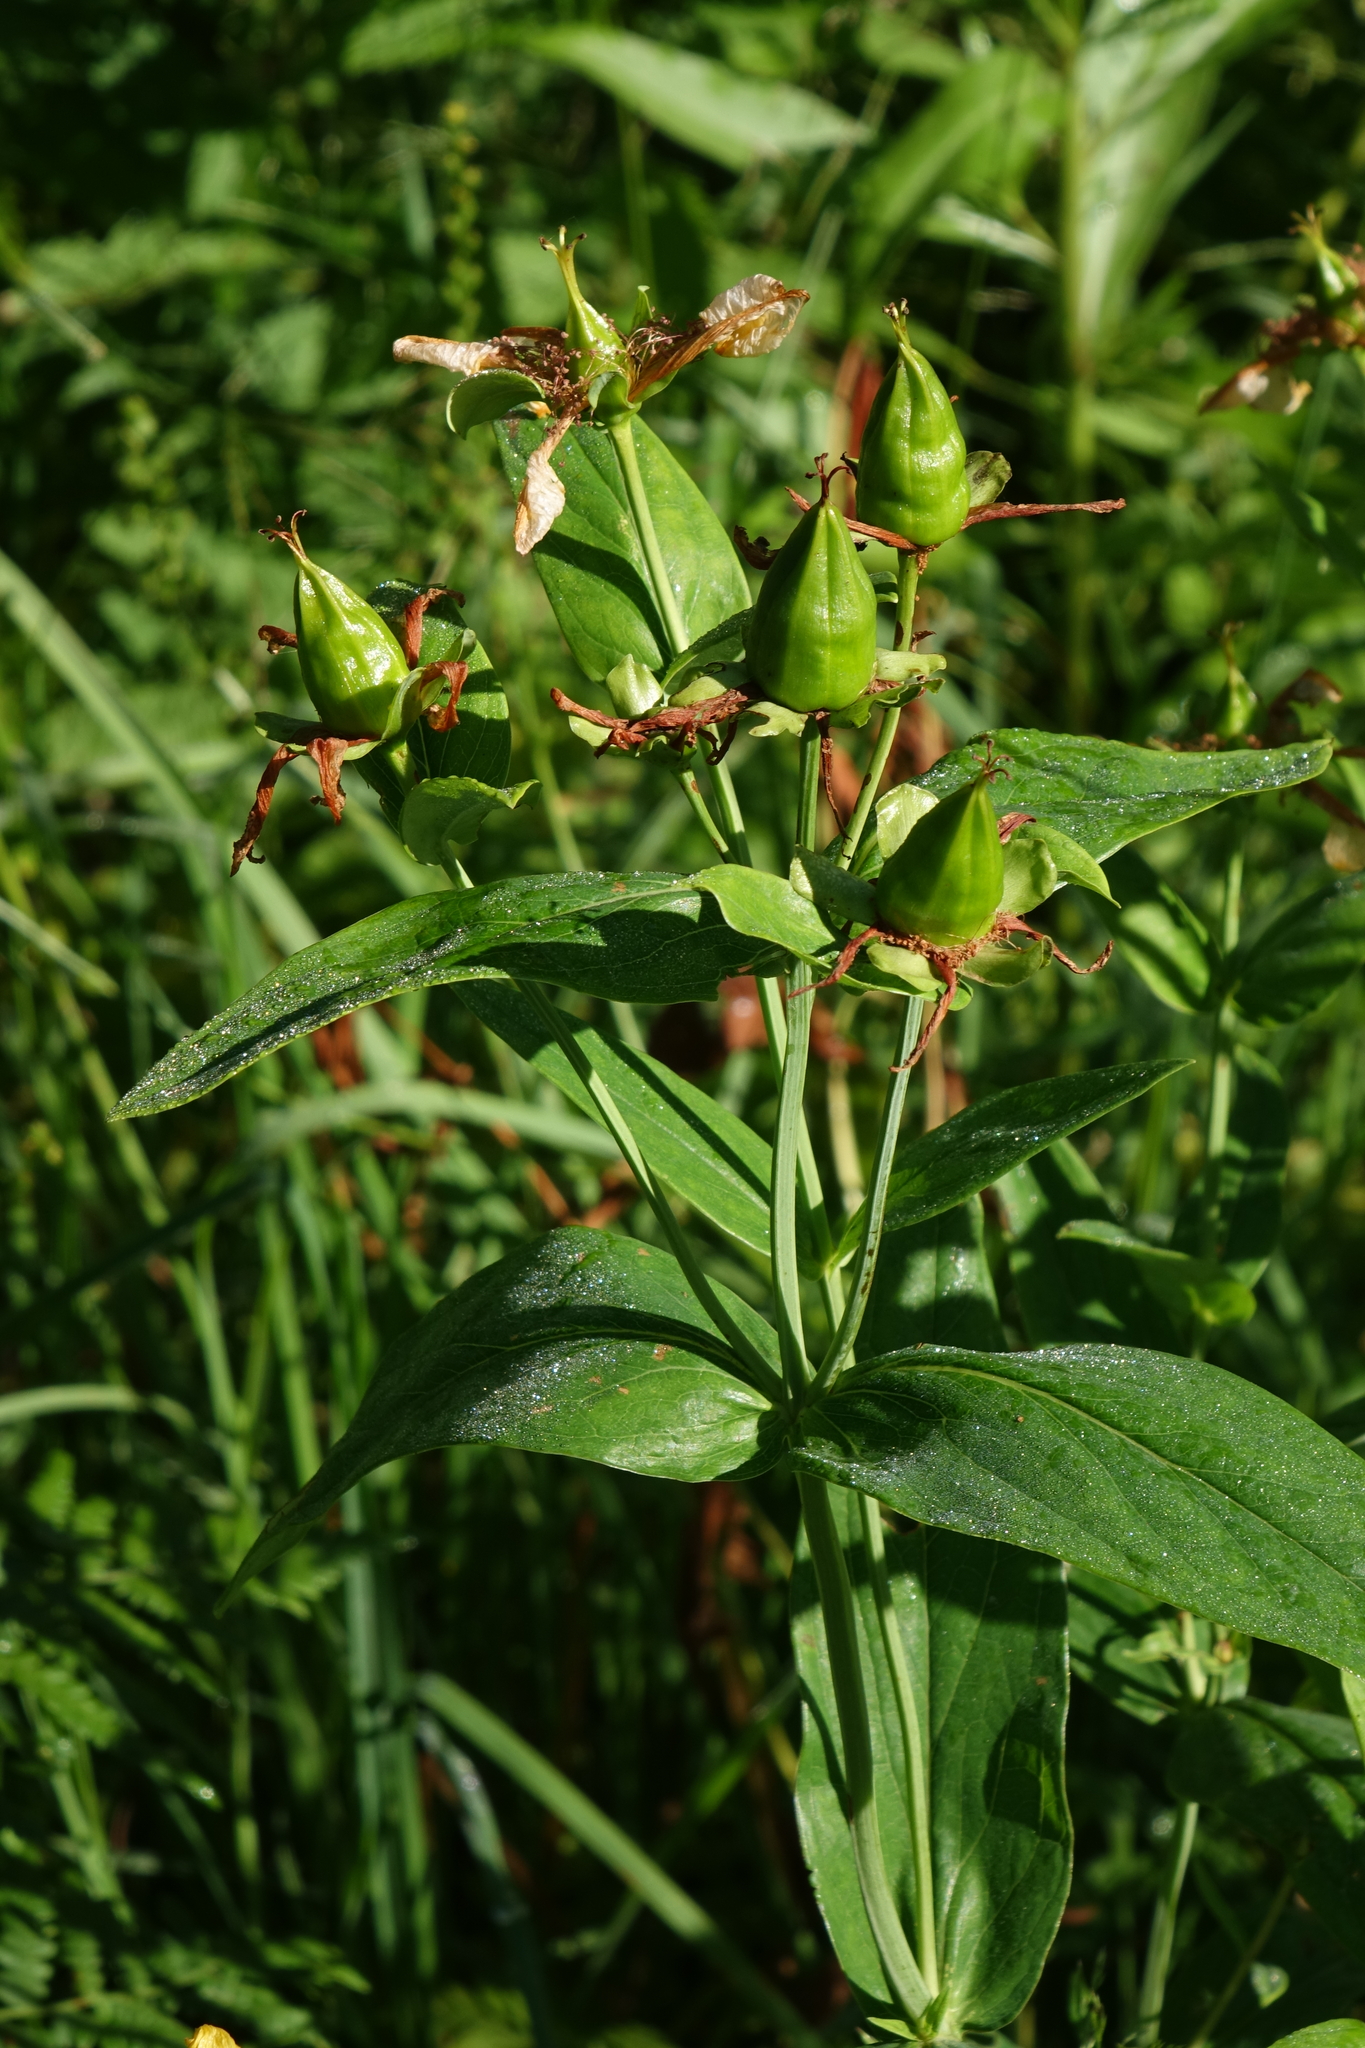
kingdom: Plantae
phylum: Tracheophyta
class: Magnoliopsida
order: Malpighiales
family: Hypericaceae
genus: Hypericum
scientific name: Hypericum ascyron
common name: Giant st. john's-wort
